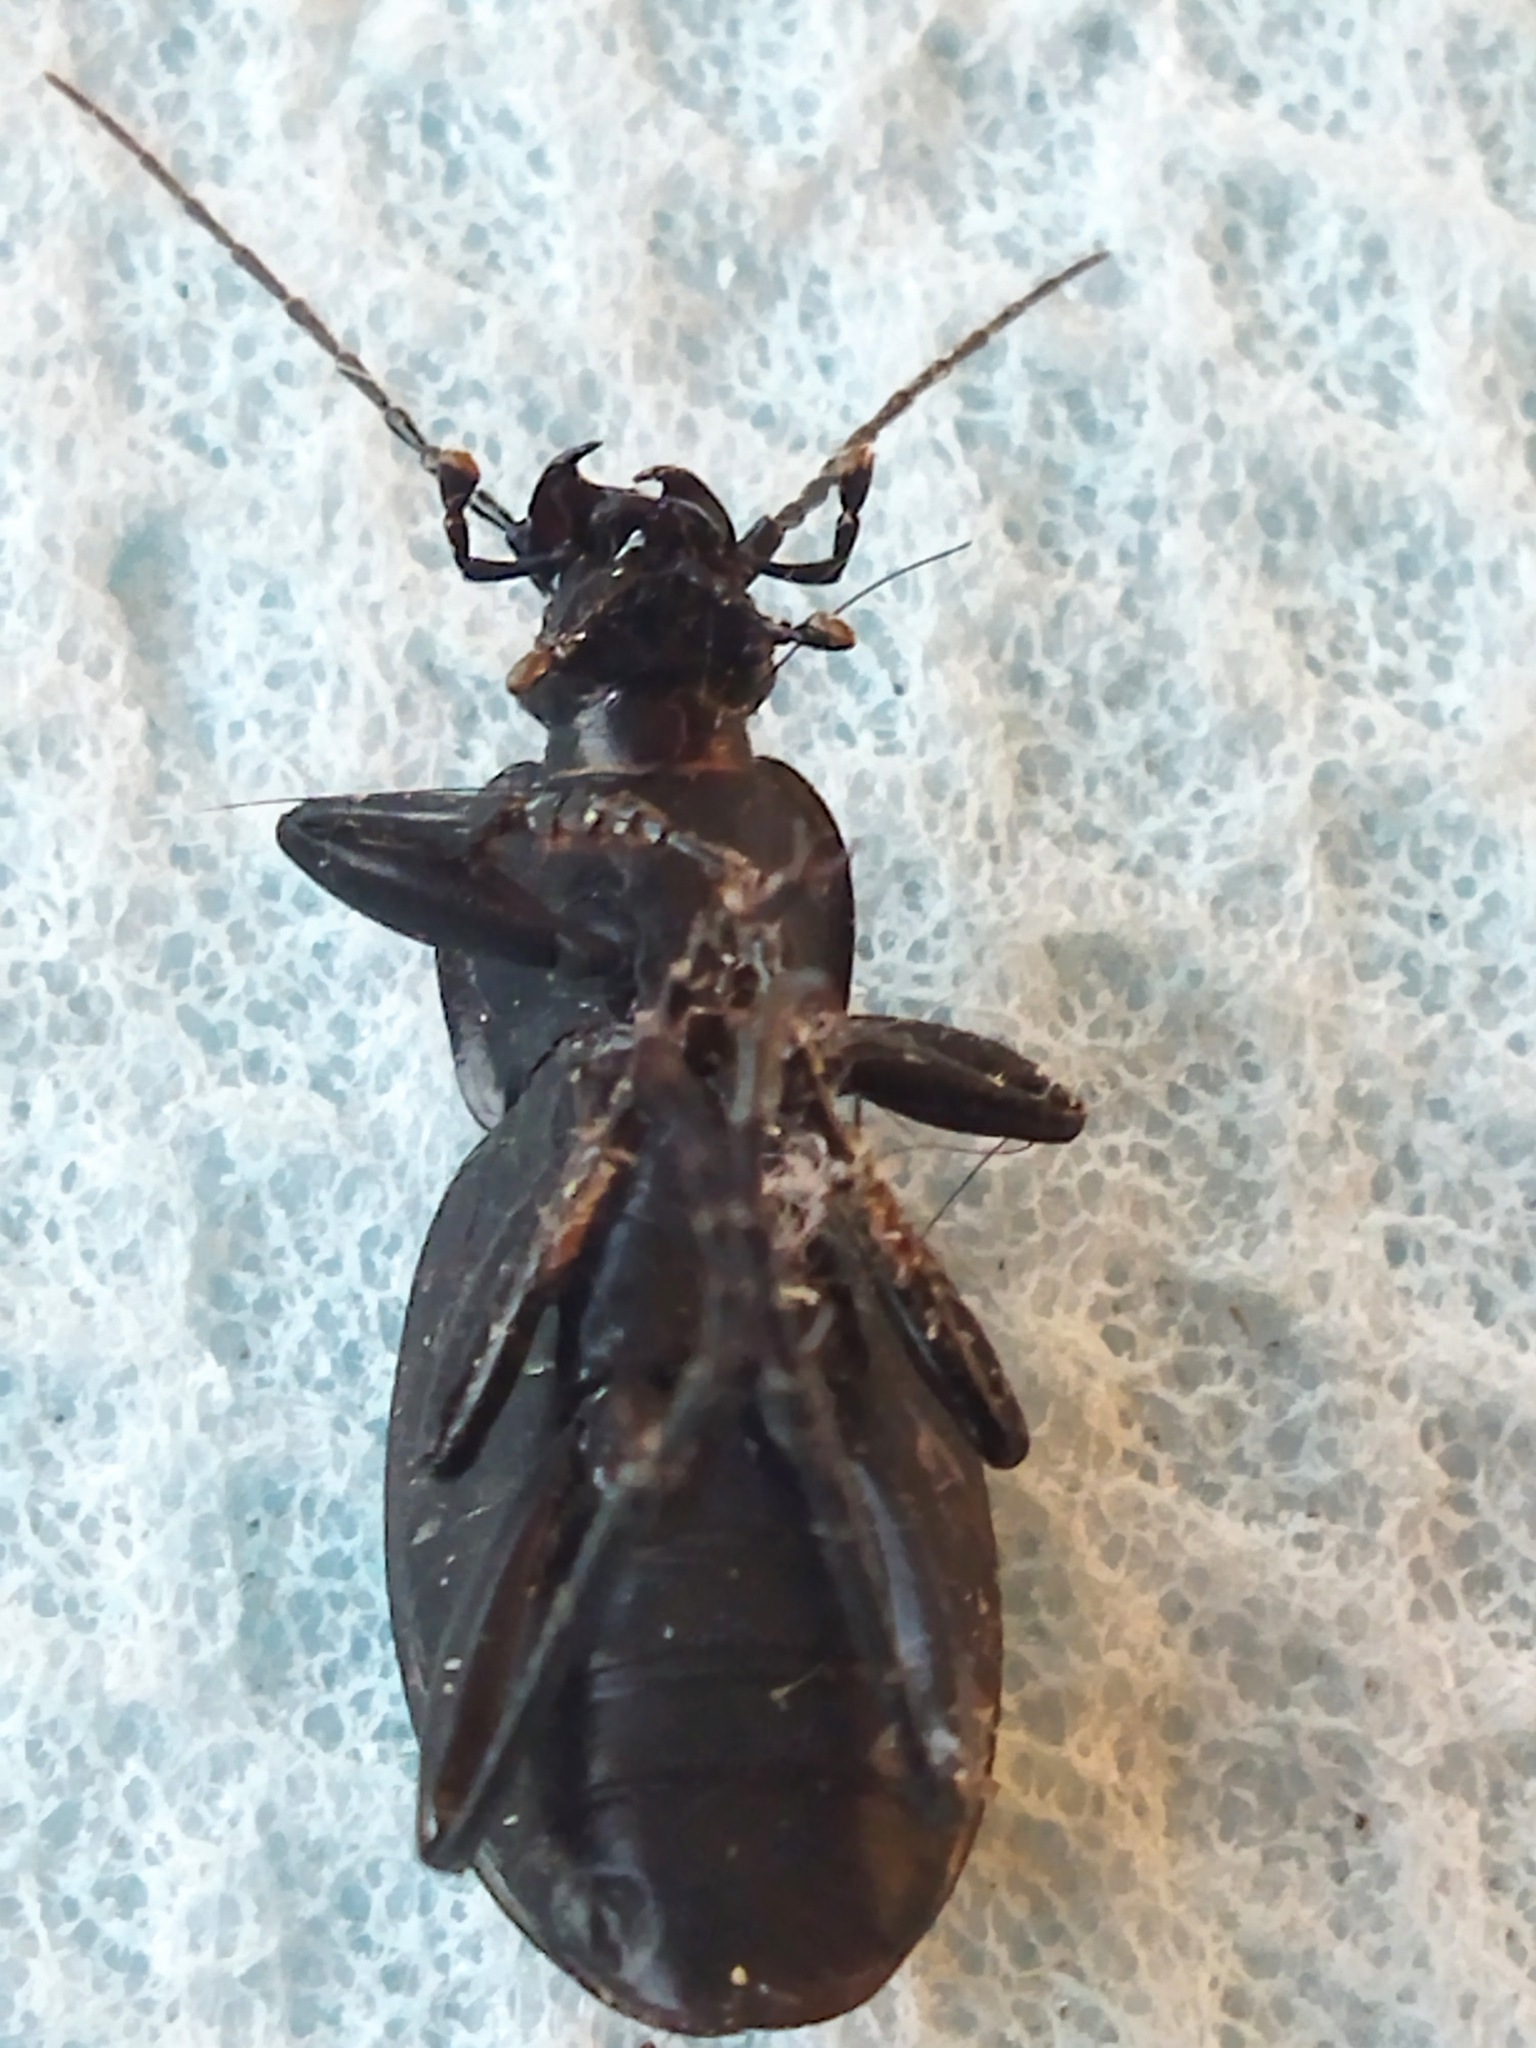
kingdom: Animalia
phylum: Arthropoda
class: Insecta
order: Coleoptera
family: Carabidae
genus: Carabus
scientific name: Carabus coriaceus
